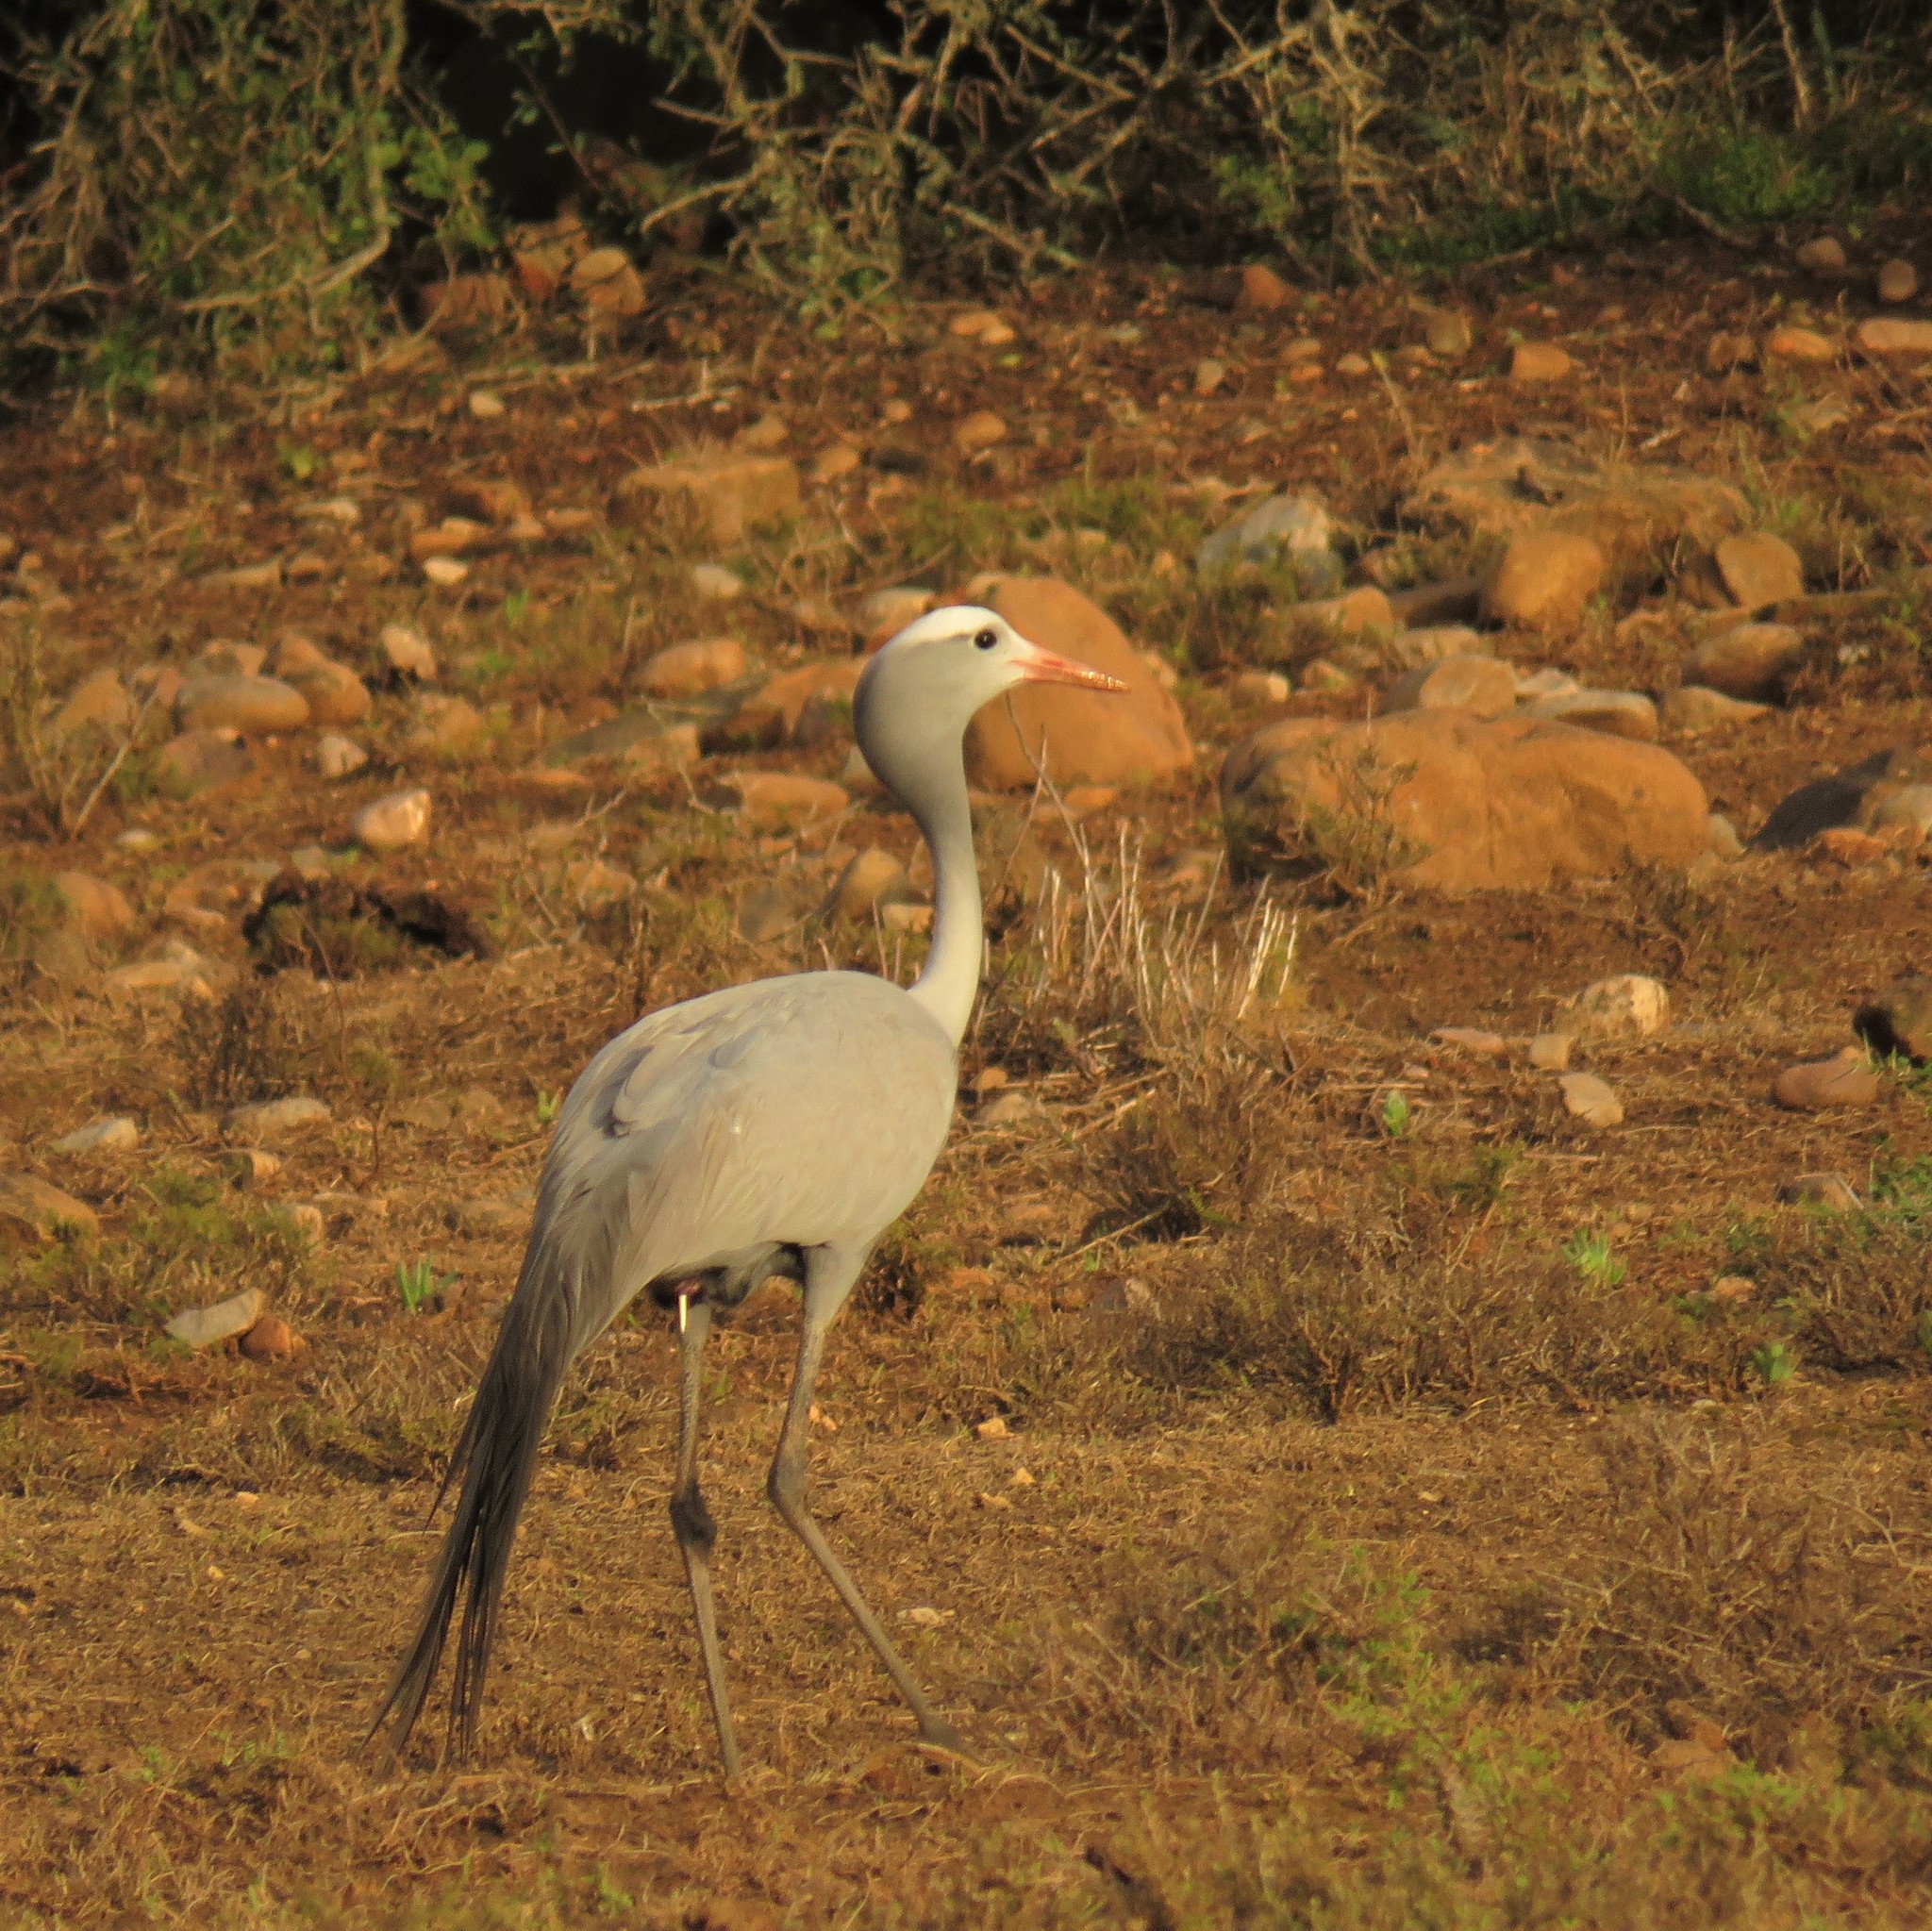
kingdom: Animalia
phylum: Chordata
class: Aves
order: Gruiformes
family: Gruidae
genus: Anthropoides
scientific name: Anthropoides paradiseus
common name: Blue crane
